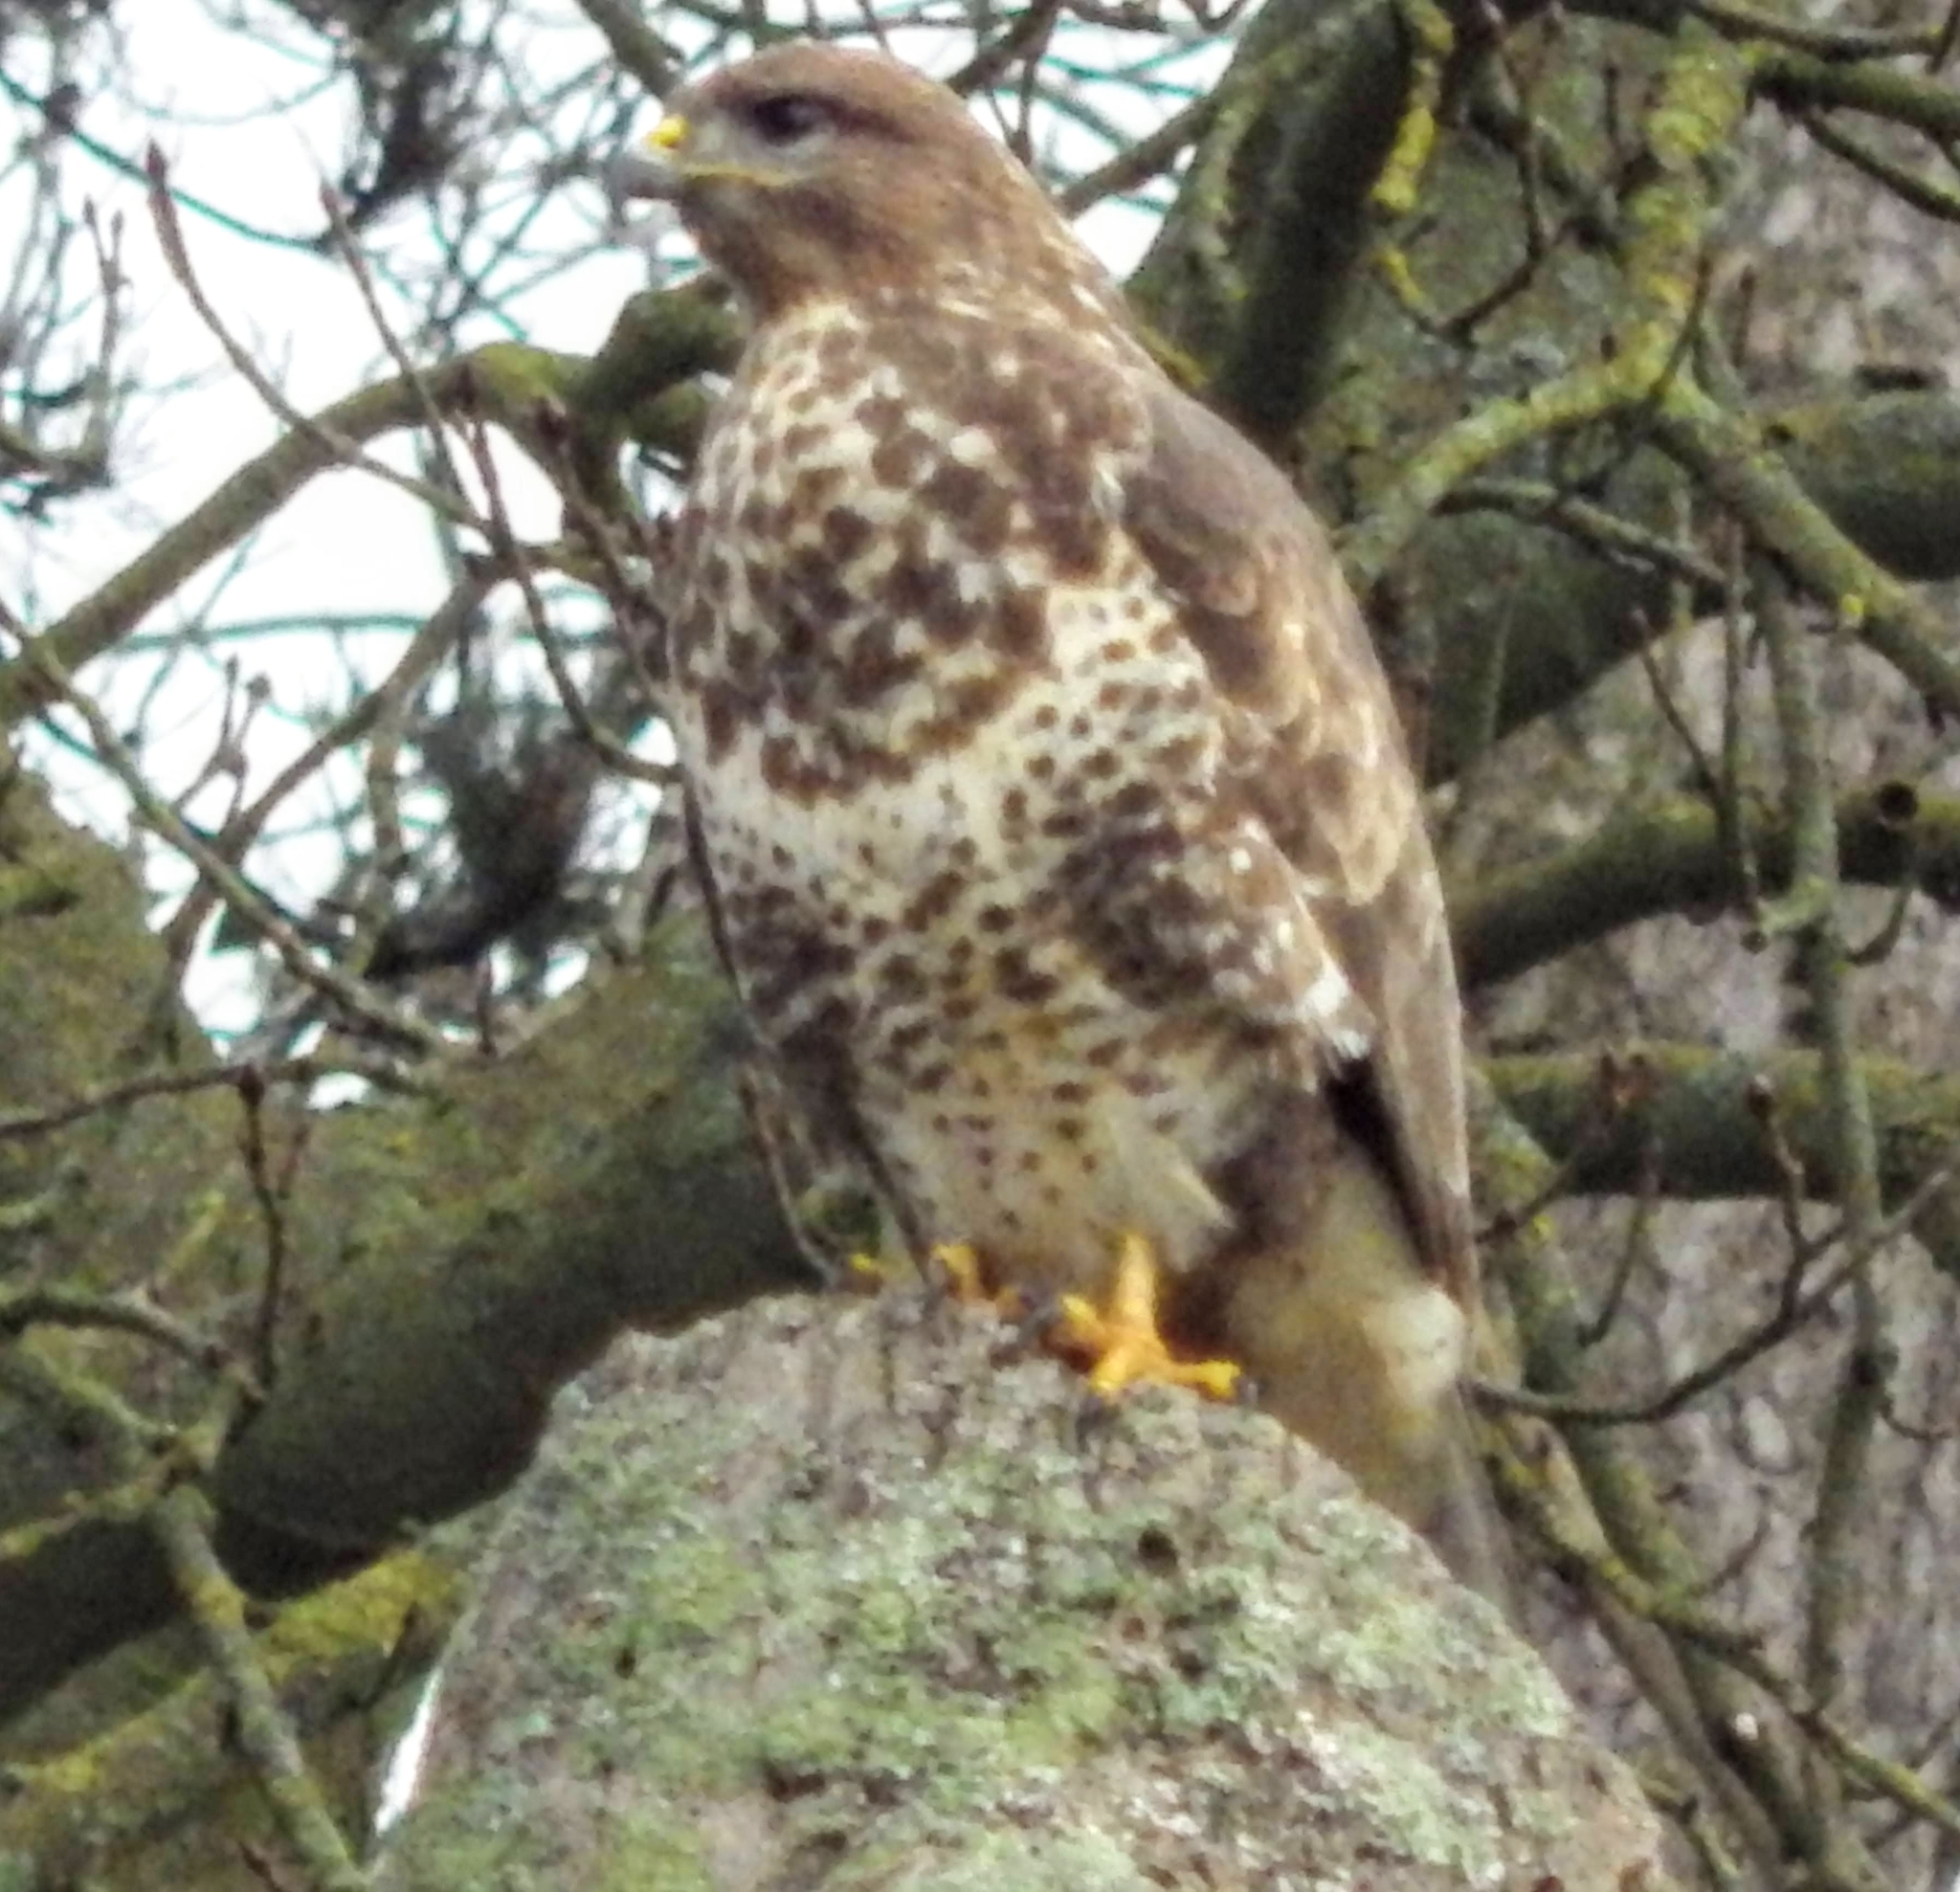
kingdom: Animalia
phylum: Chordata
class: Aves
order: Accipitriformes
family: Accipitridae
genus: Buteo
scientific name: Buteo buteo
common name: Common buzzard
